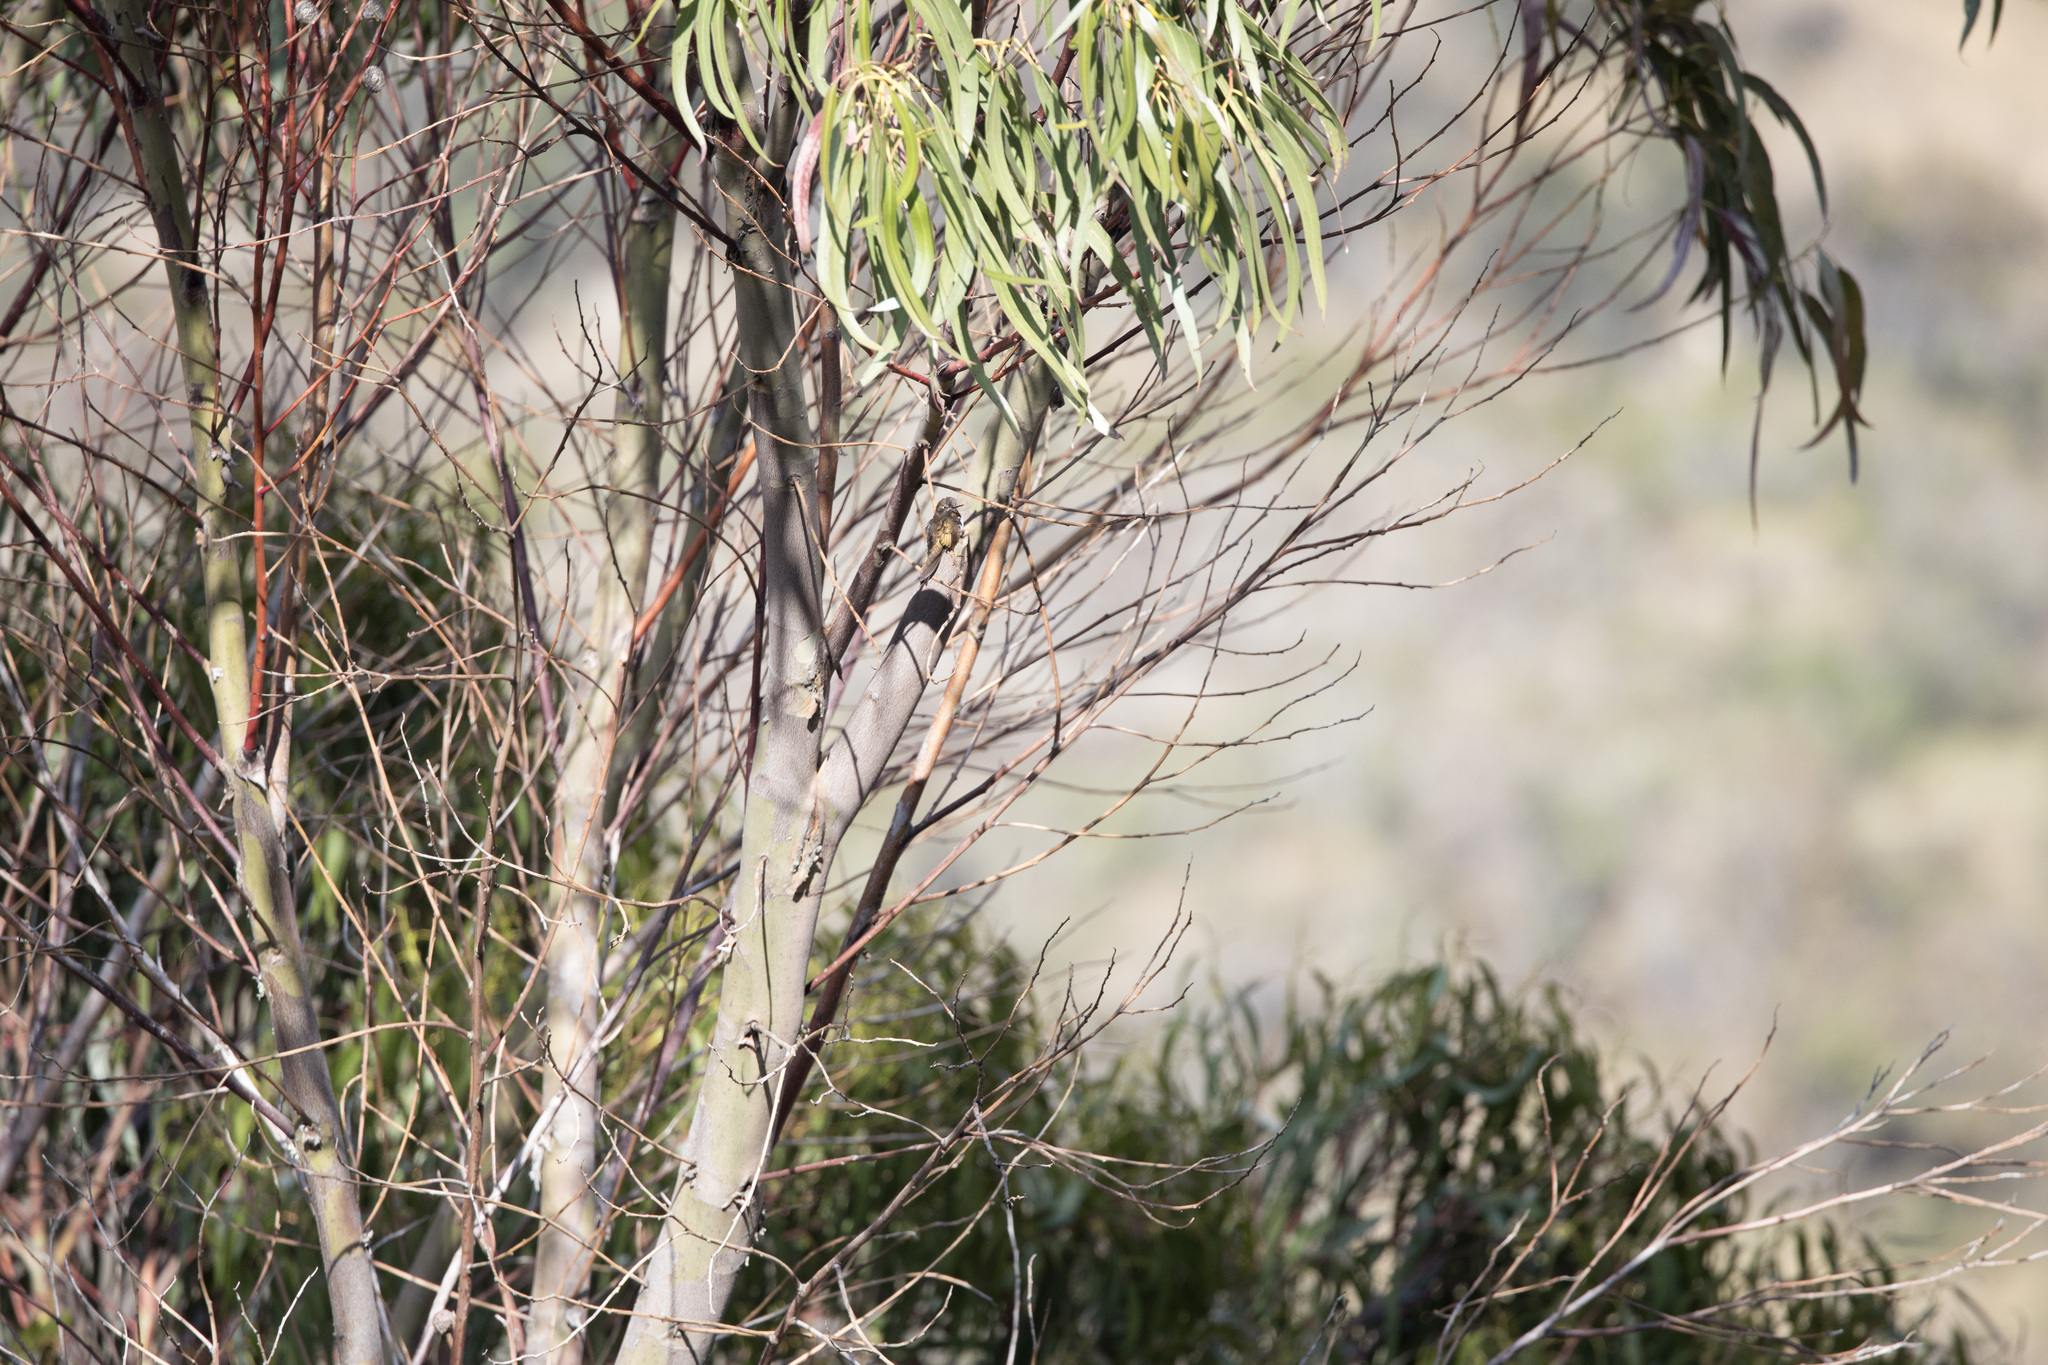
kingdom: Animalia
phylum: Chordata
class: Aves
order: Apodiformes
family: Trochilidae
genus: Aglaeactis
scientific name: Aglaeactis castelnaudii
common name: White-tufted sunbeam
